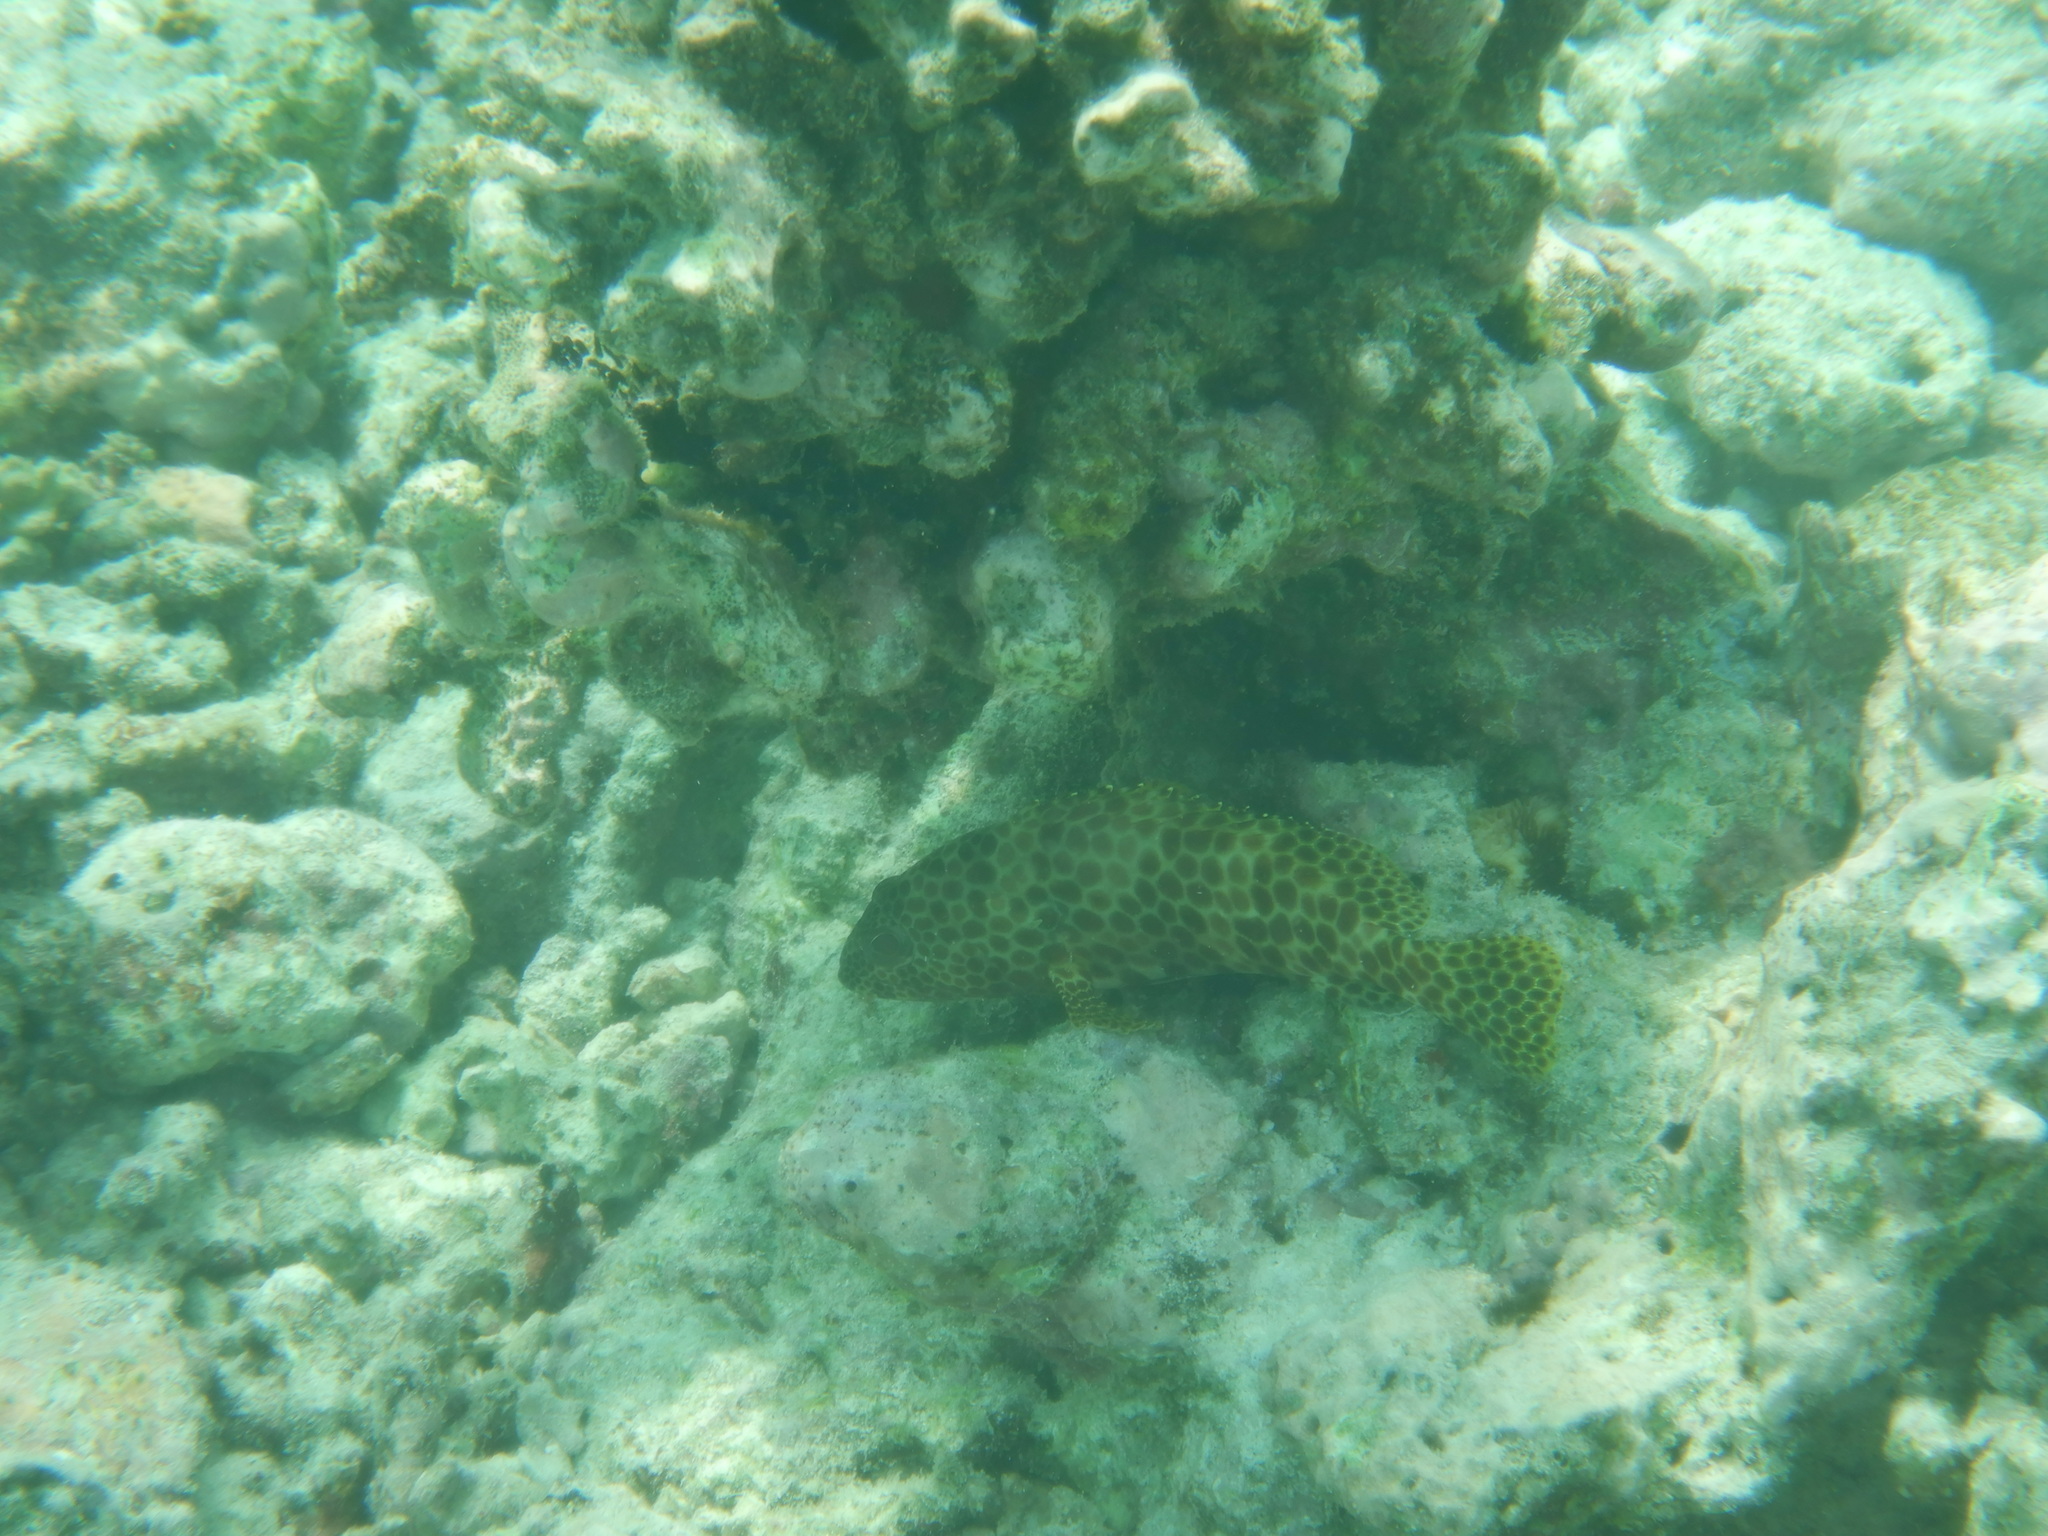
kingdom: Animalia
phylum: Chordata
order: Perciformes
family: Serranidae
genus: Epinephelus
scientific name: Epinephelus merra
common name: Honeycomb grouper
